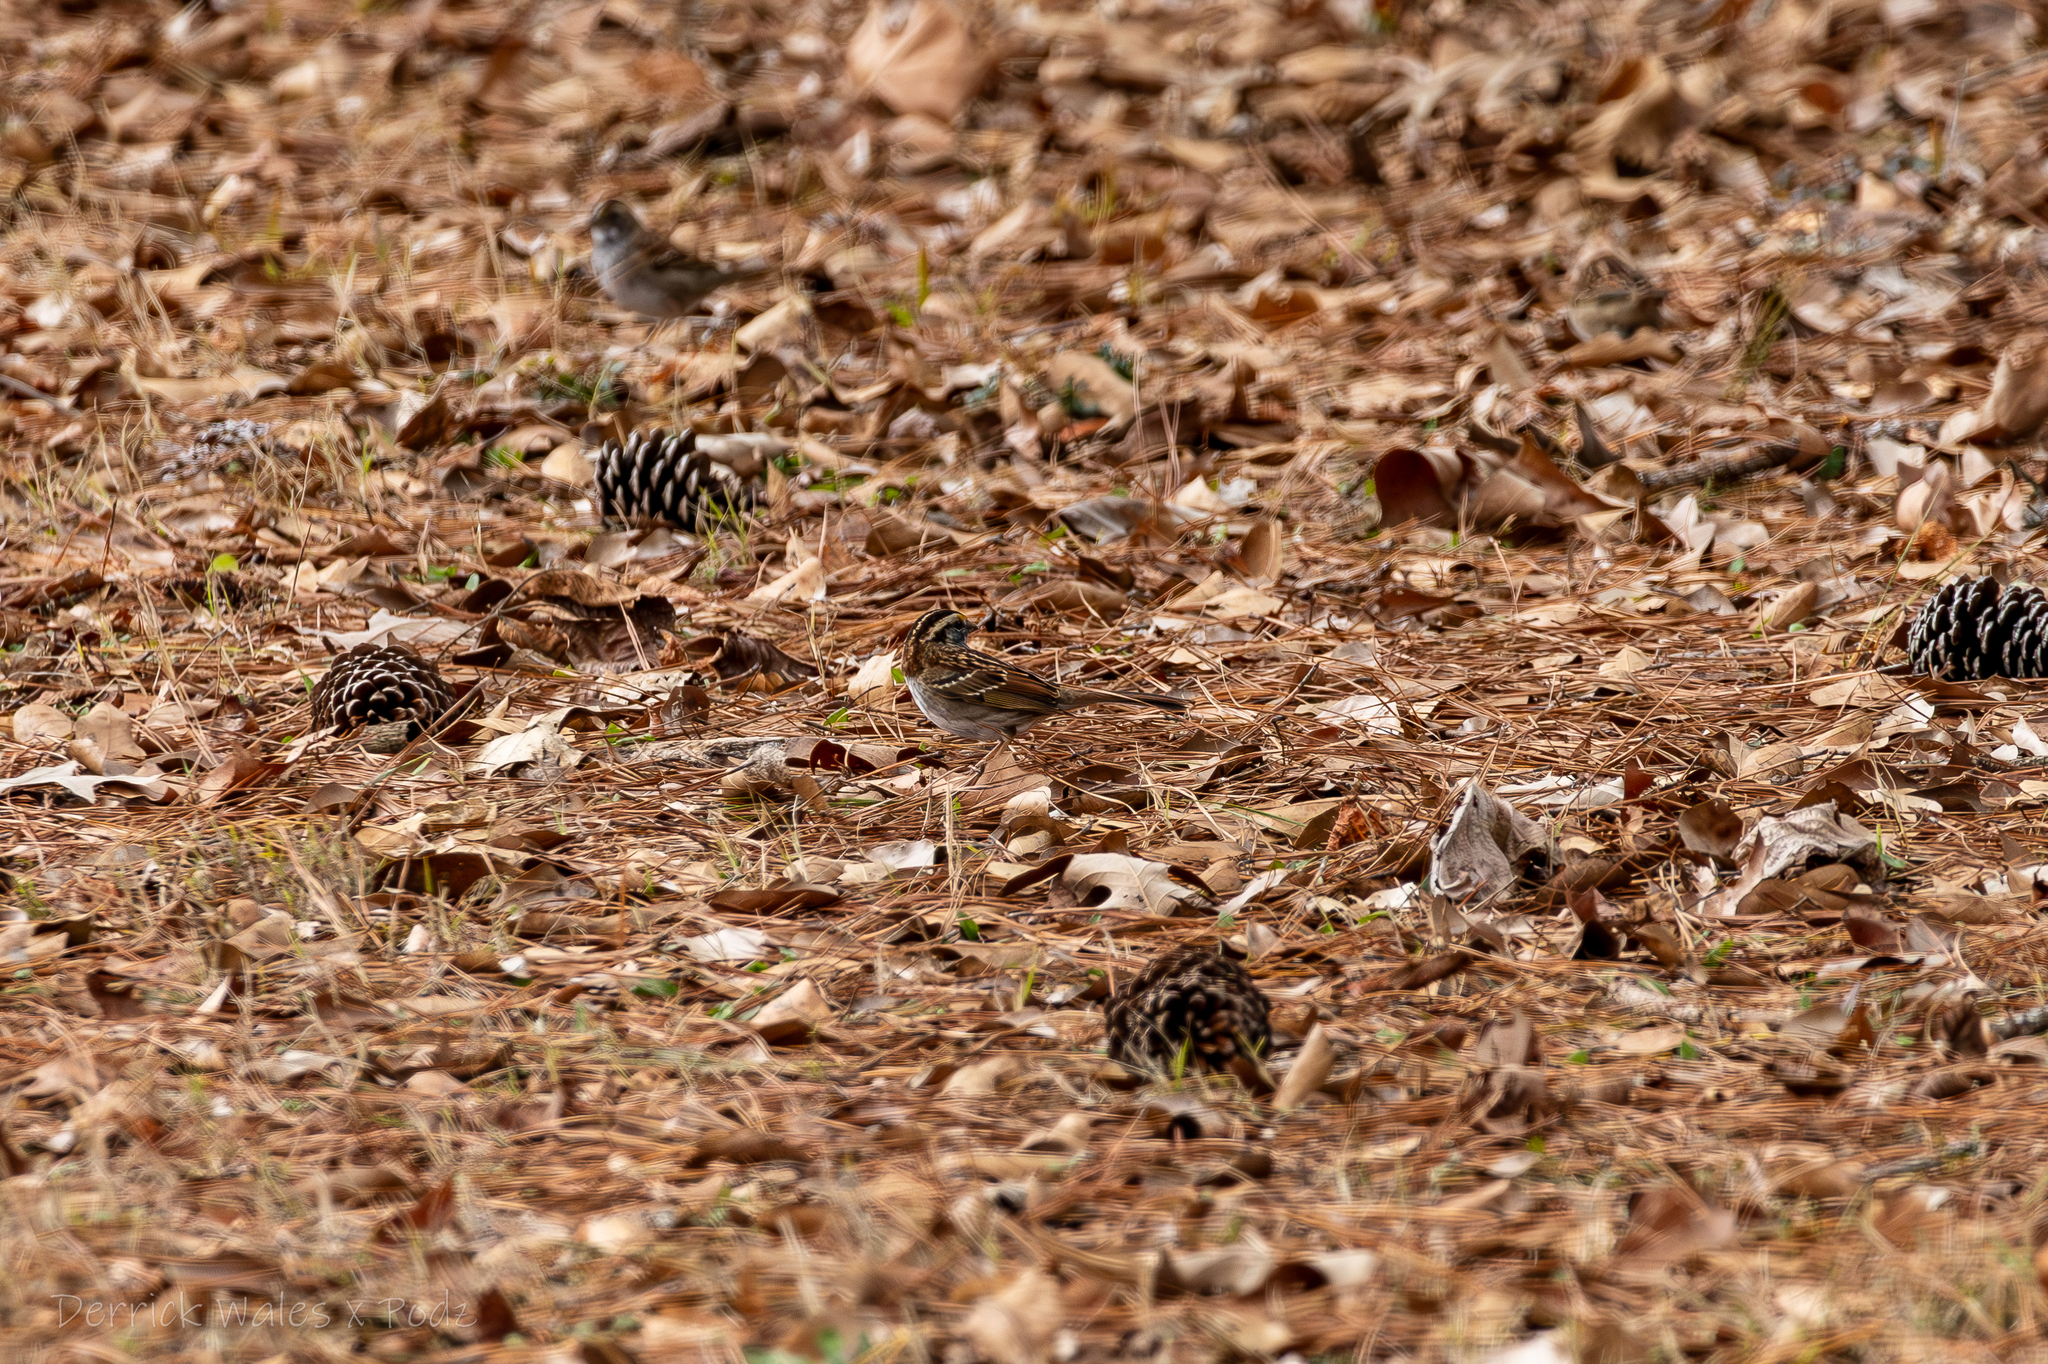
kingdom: Animalia
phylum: Chordata
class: Aves
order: Passeriformes
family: Passerellidae
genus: Zonotrichia
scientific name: Zonotrichia albicollis
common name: White-throated sparrow
